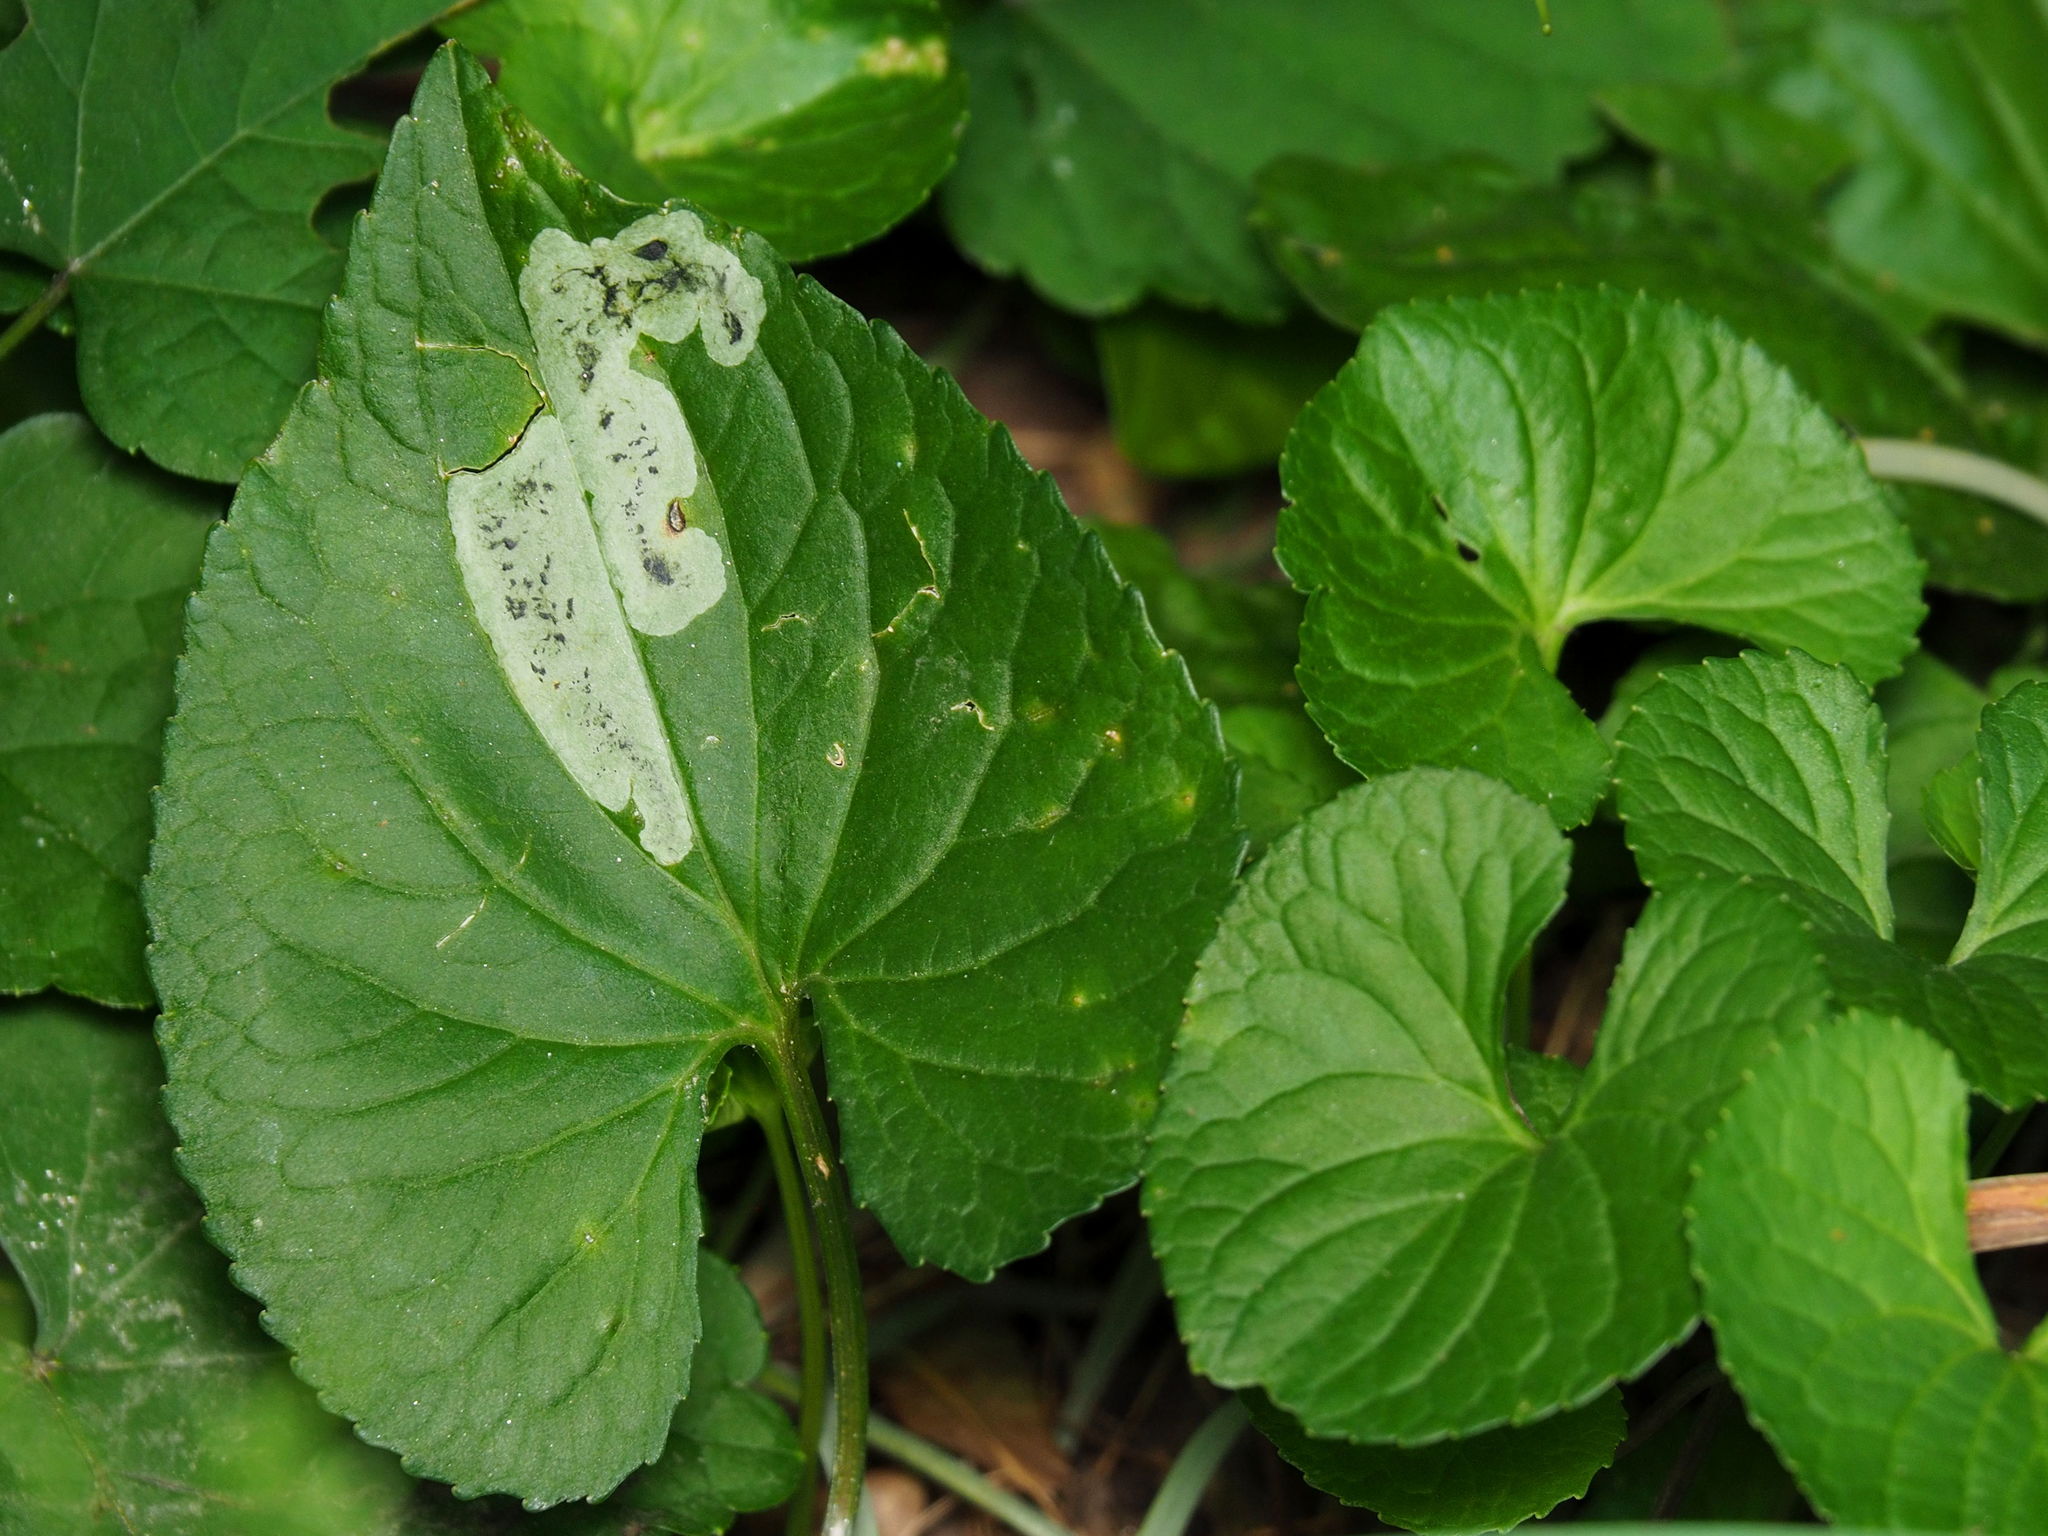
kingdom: Animalia
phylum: Arthropoda
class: Insecta
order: Diptera
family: Agromyzidae
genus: Liriomyza
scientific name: Liriomyza violivora
